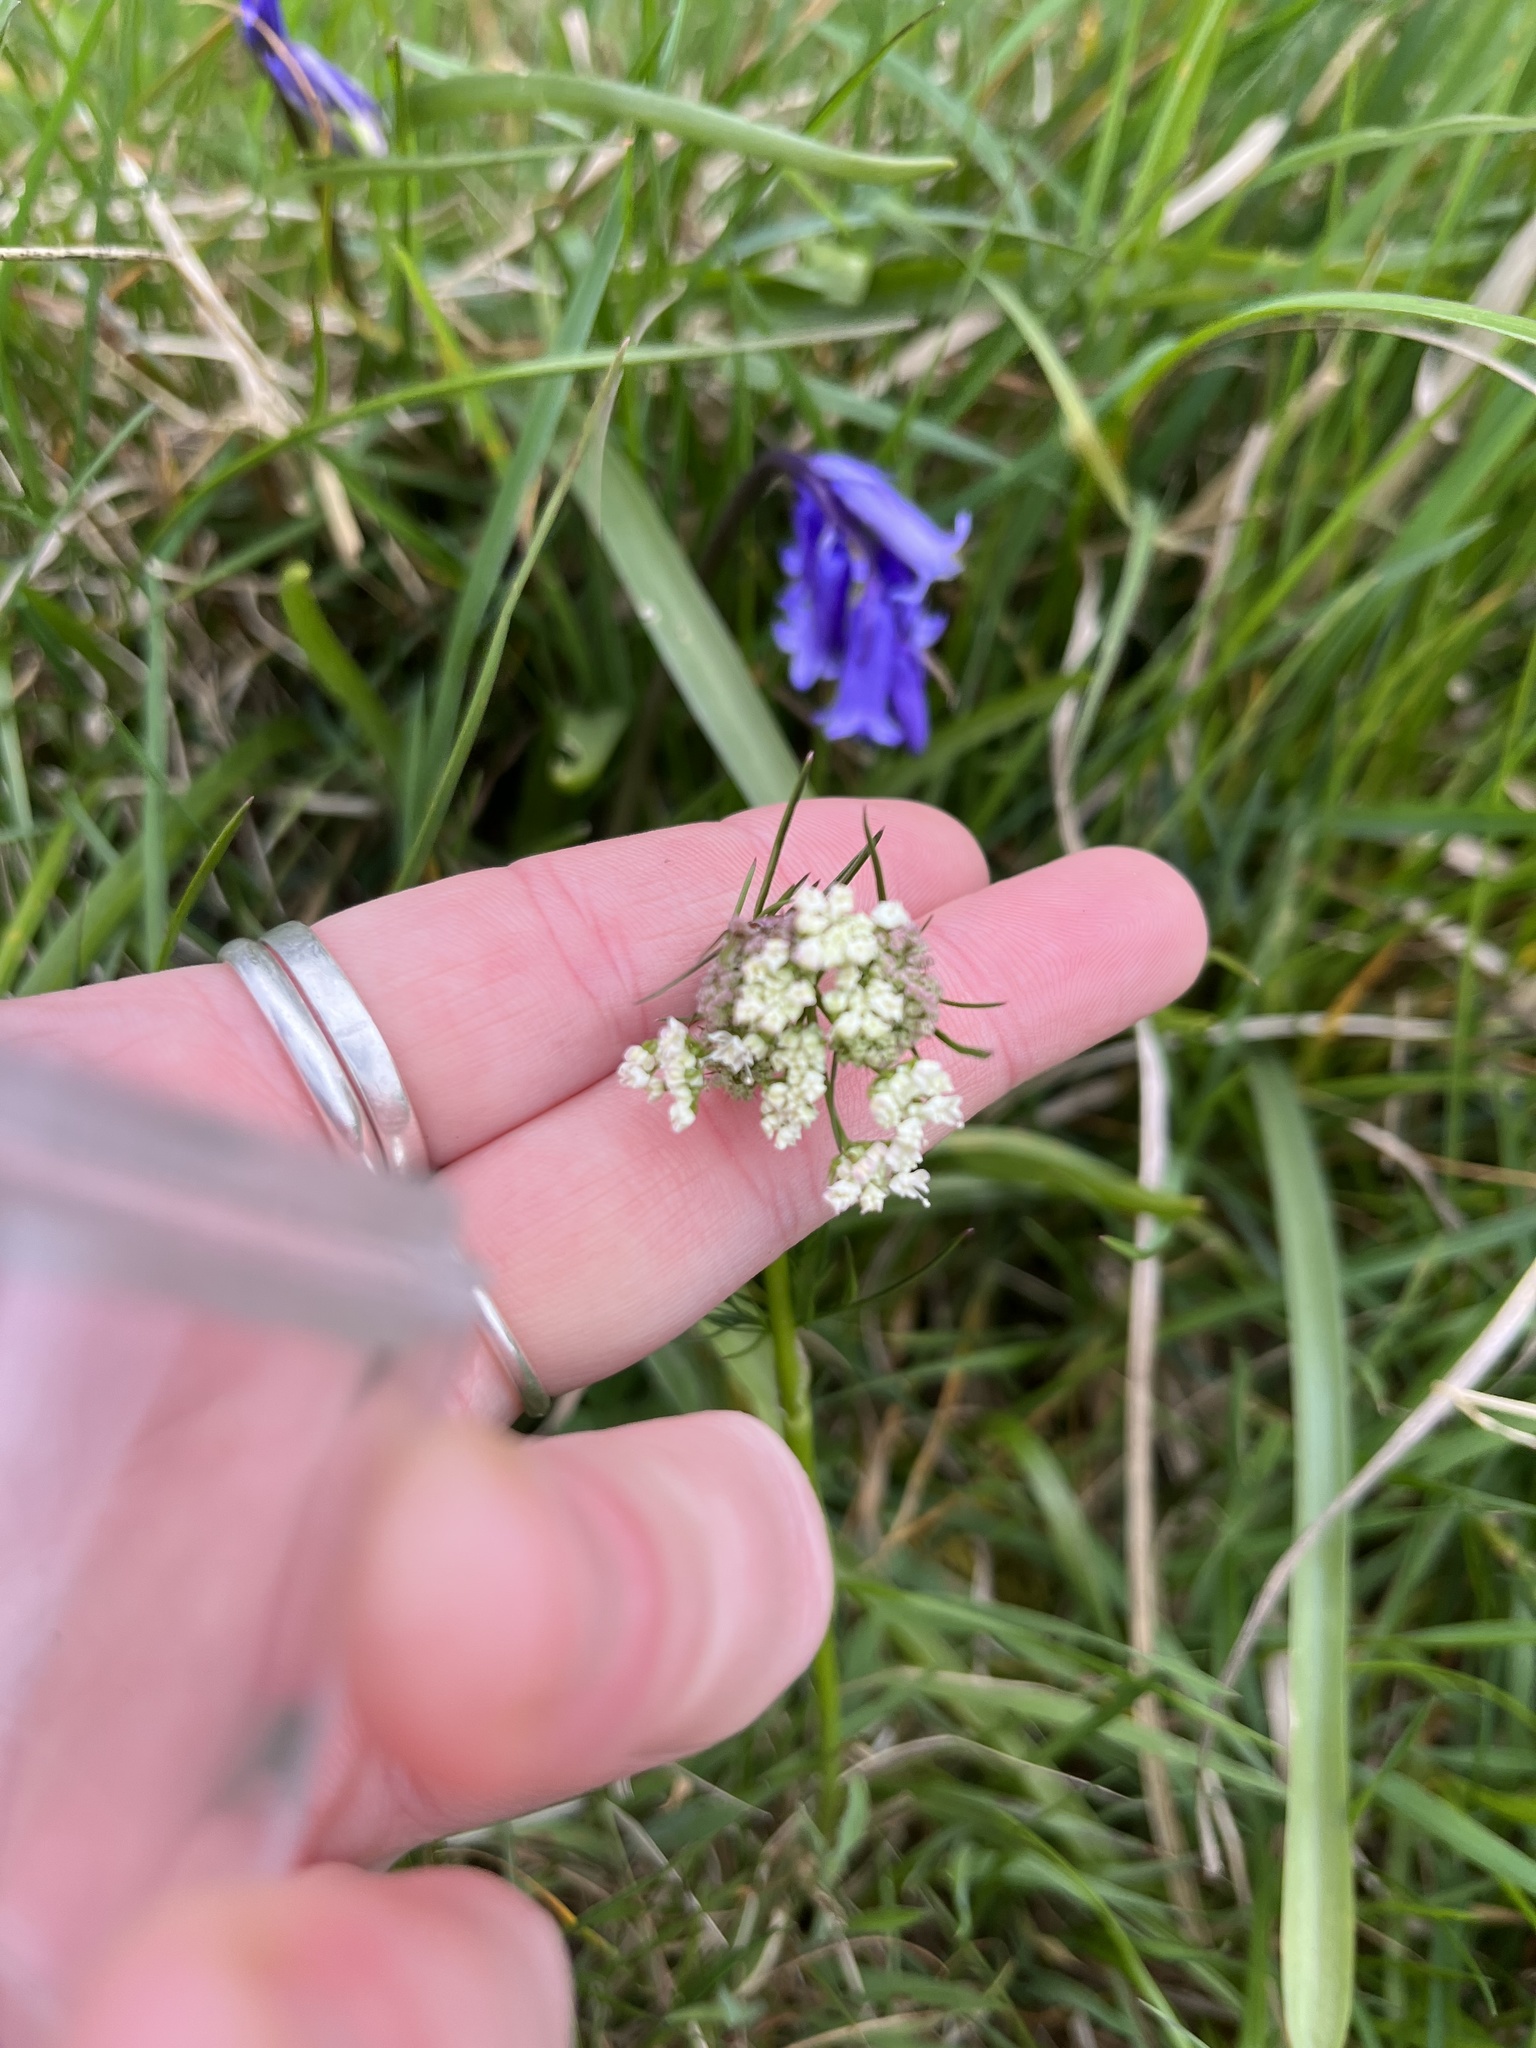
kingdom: Plantae
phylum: Tracheophyta
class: Magnoliopsida
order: Apiales
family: Apiaceae
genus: Conopodium
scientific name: Conopodium majus
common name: Pignut
